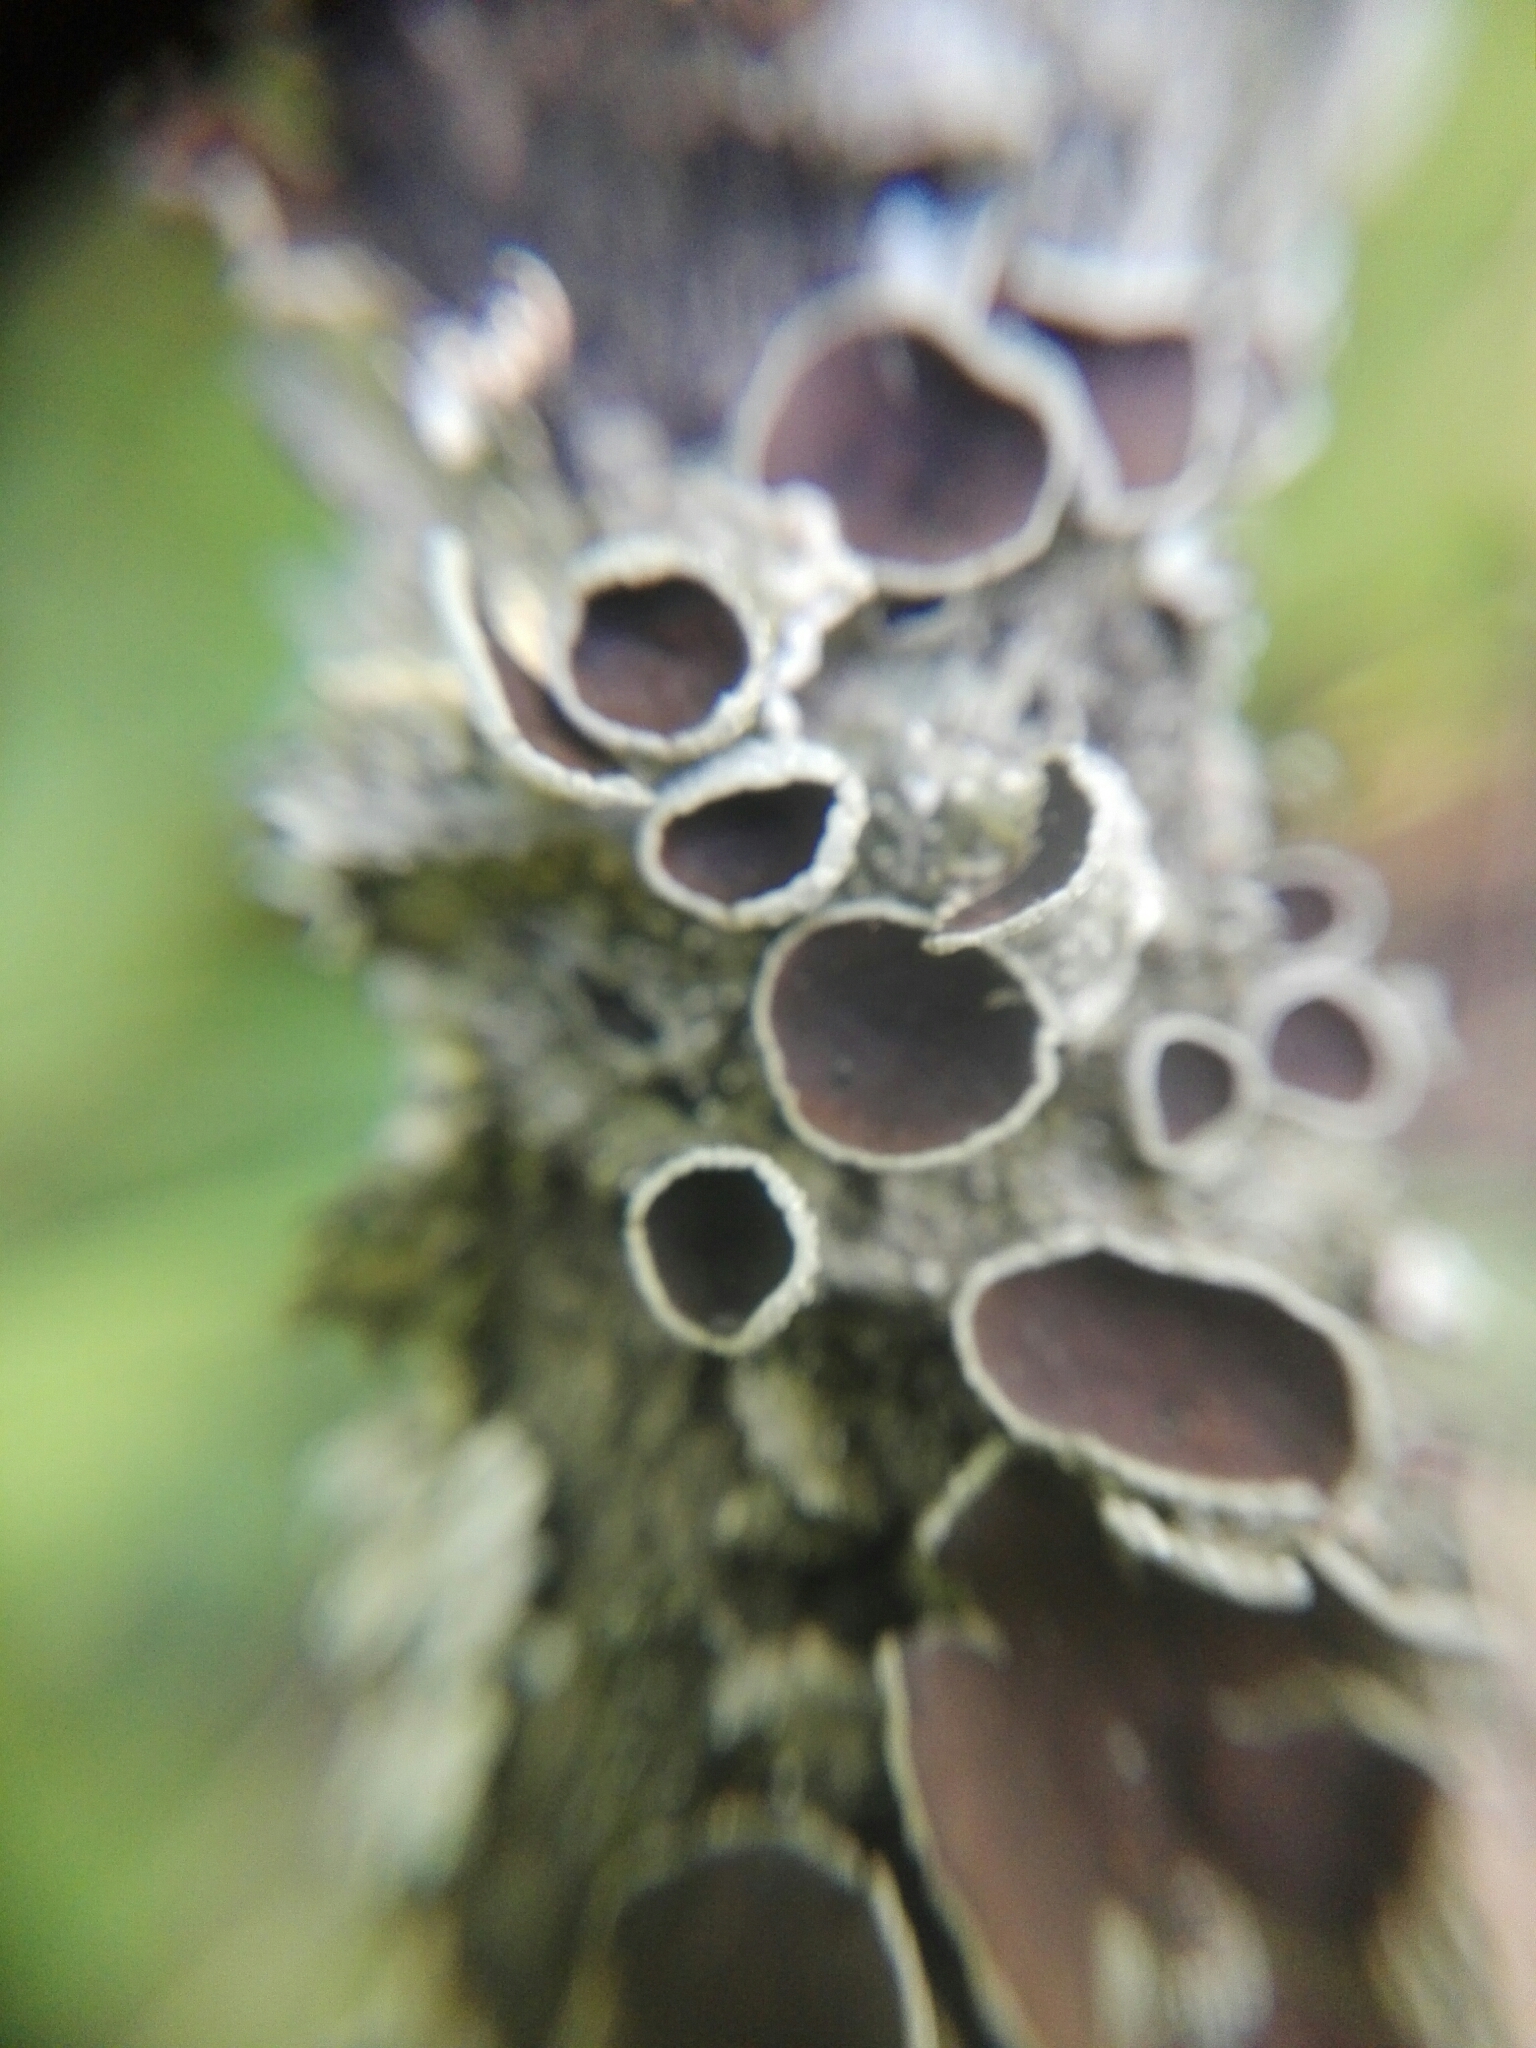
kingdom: Fungi
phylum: Ascomycota
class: Lecanoromycetes
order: Lecanorales
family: Parmeliaceae
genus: Punctelia
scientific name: Punctelia bolliana
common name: Eastern speckled shield lichen
